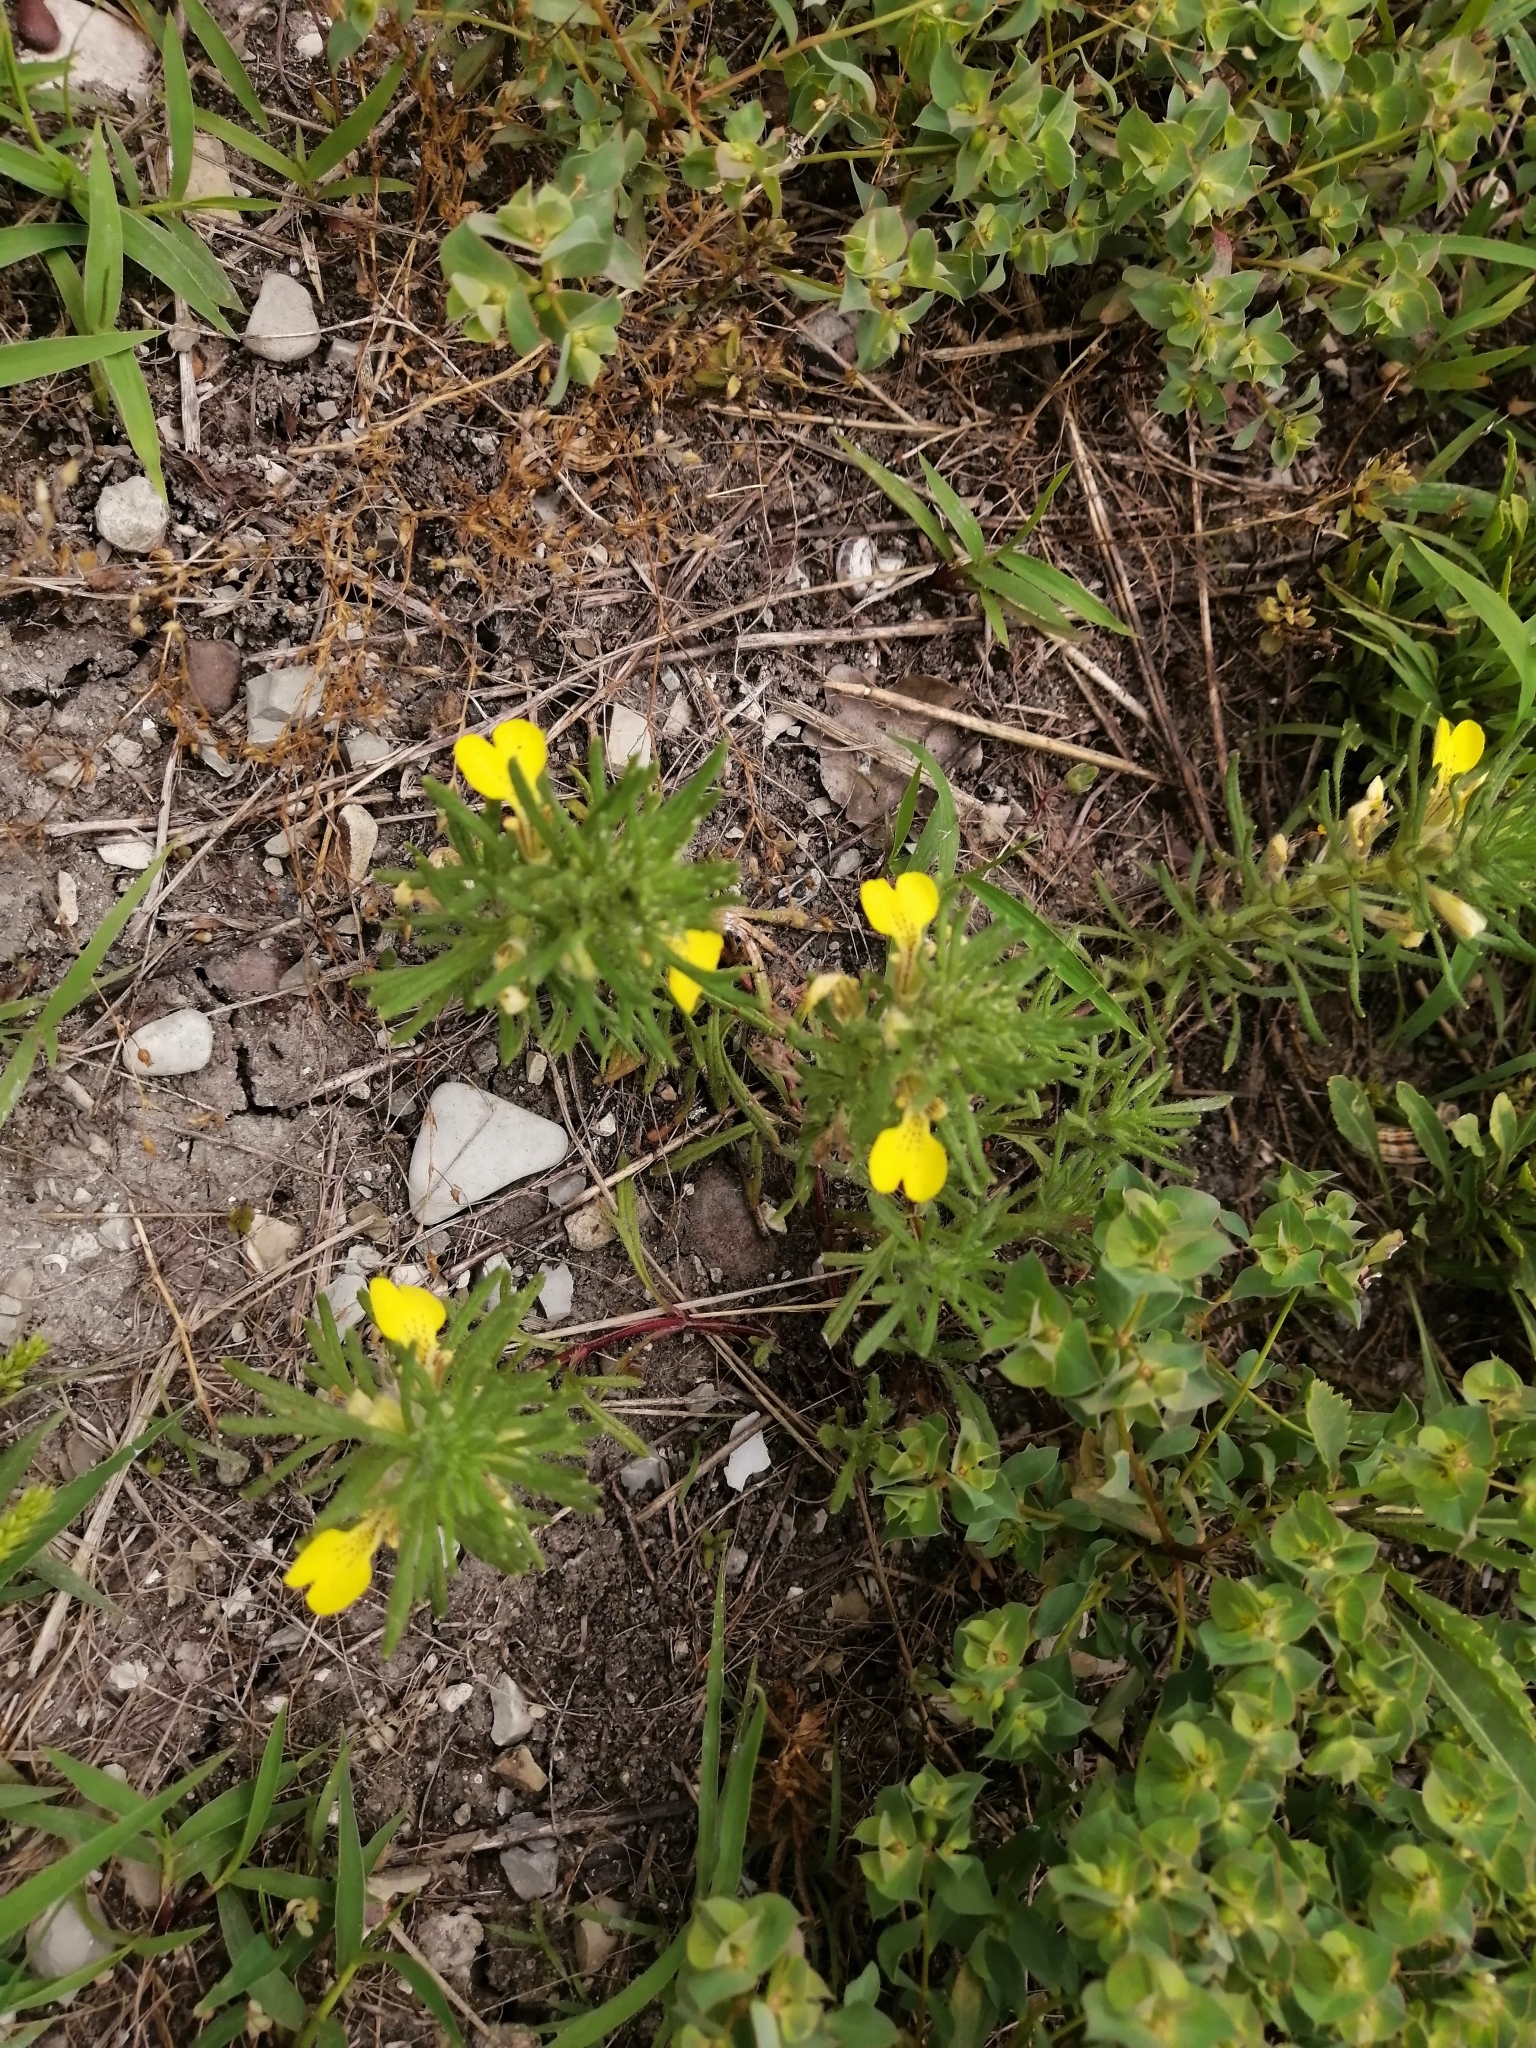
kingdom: Plantae
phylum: Tracheophyta
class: Magnoliopsida
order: Lamiales
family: Lamiaceae
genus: Ajuga
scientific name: Ajuga chamaepitys
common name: Ground-pine
